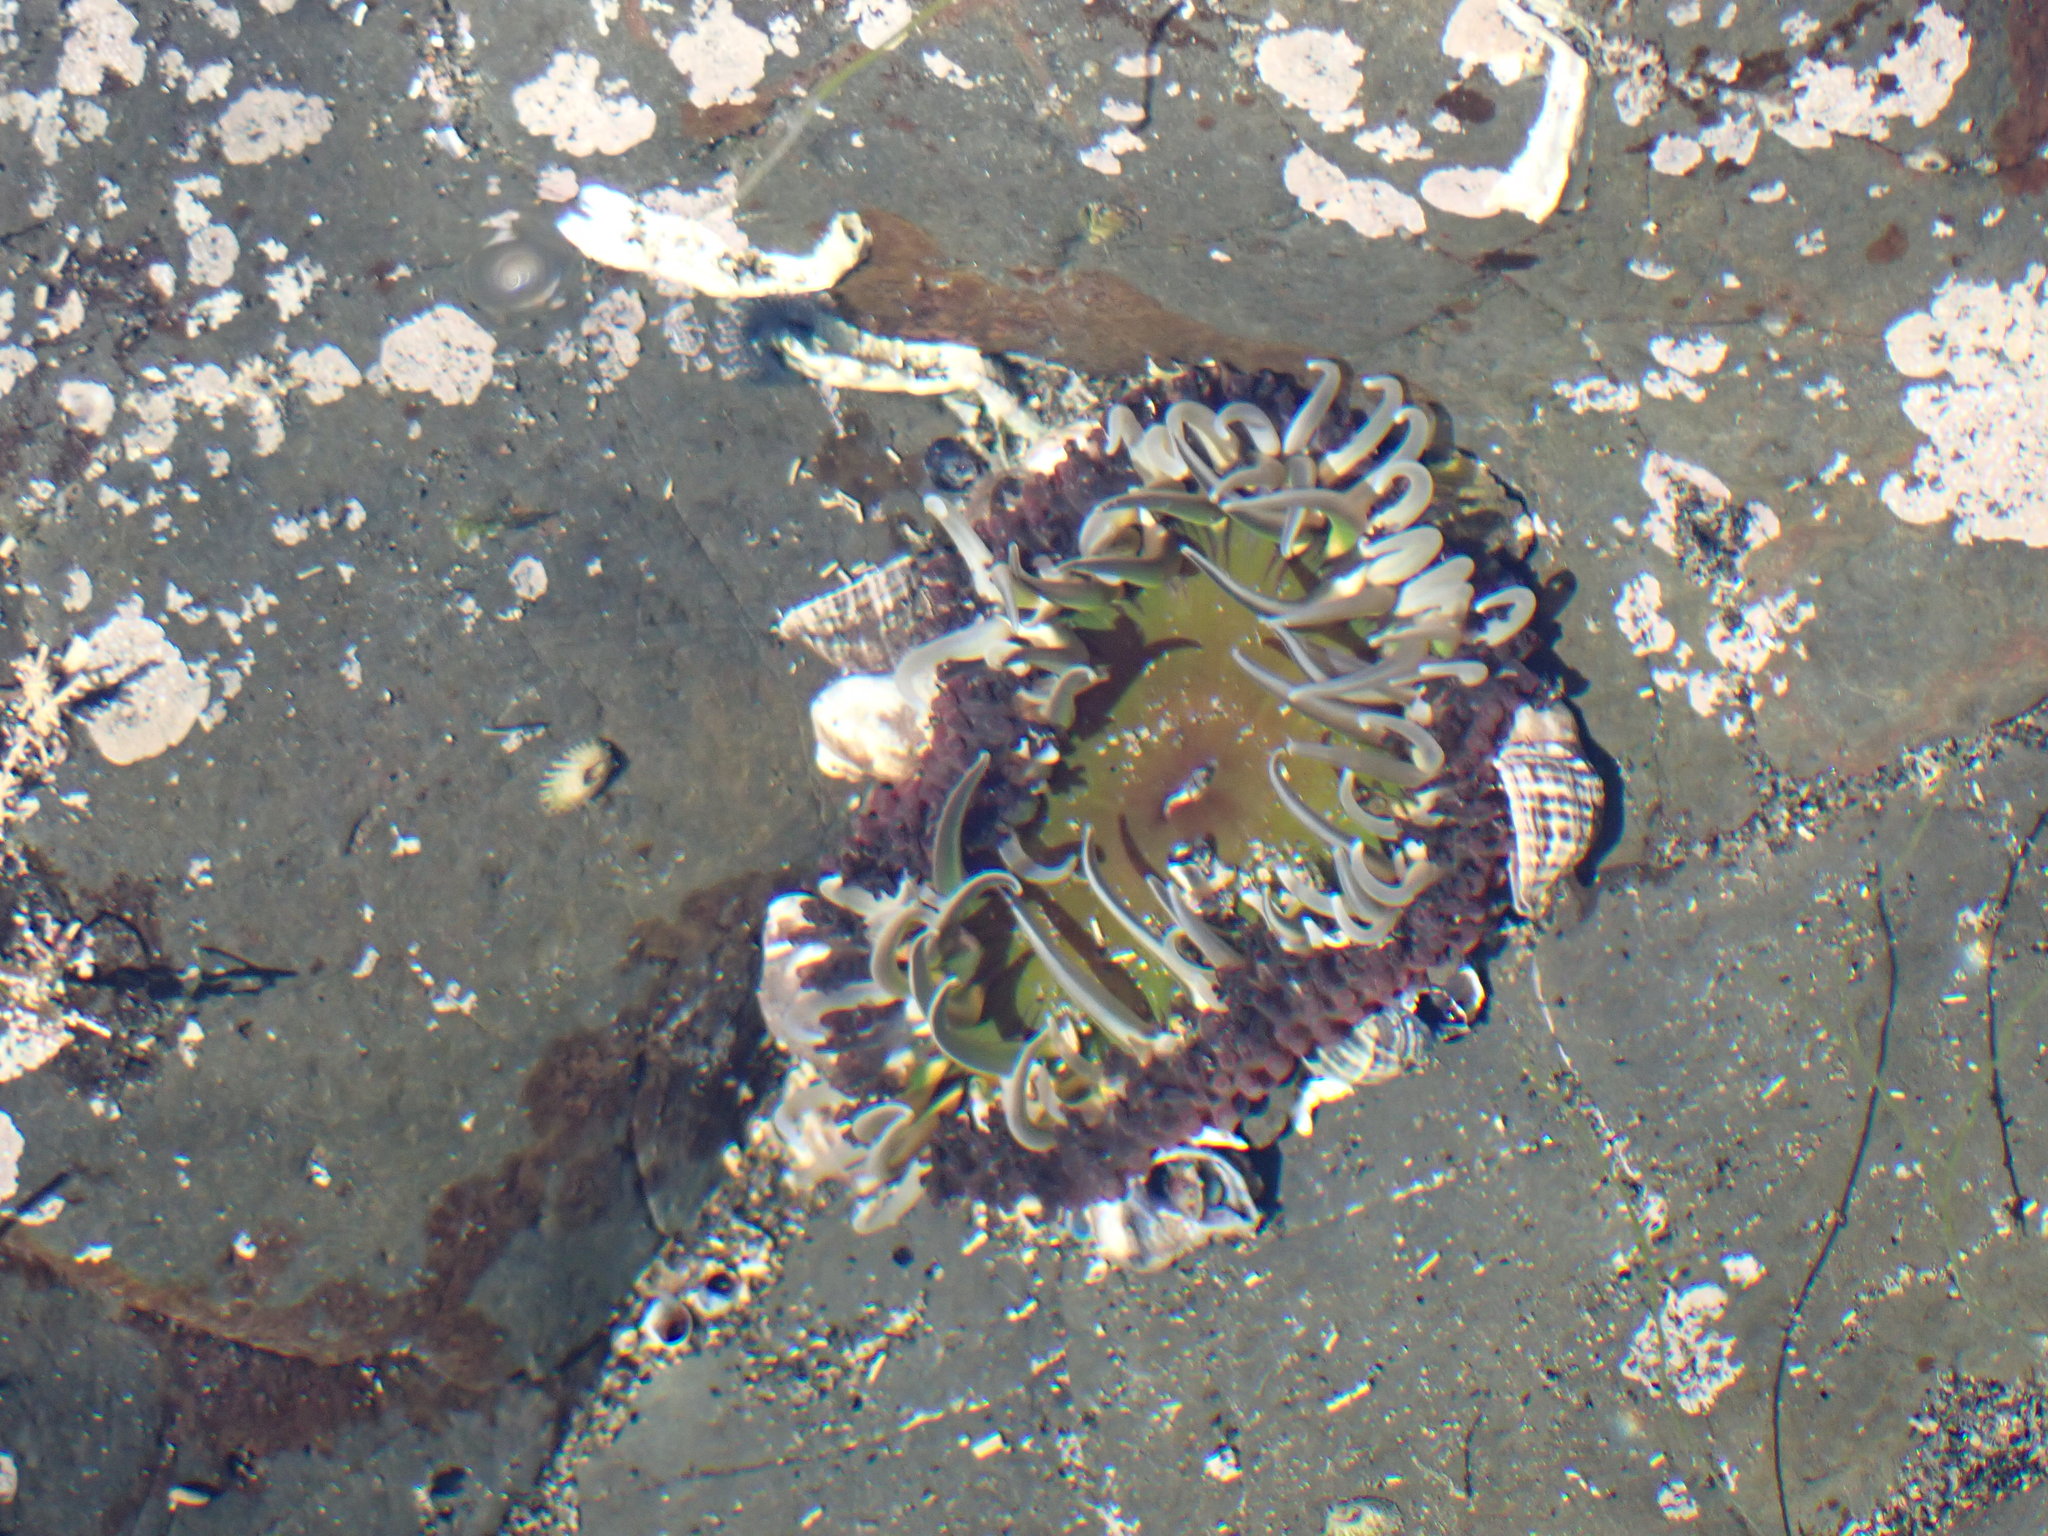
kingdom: Animalia
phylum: Cnidaria
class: Anthozoa
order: Actiniaria
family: Actiniidae
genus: Oulactis
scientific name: Oulactis magna
